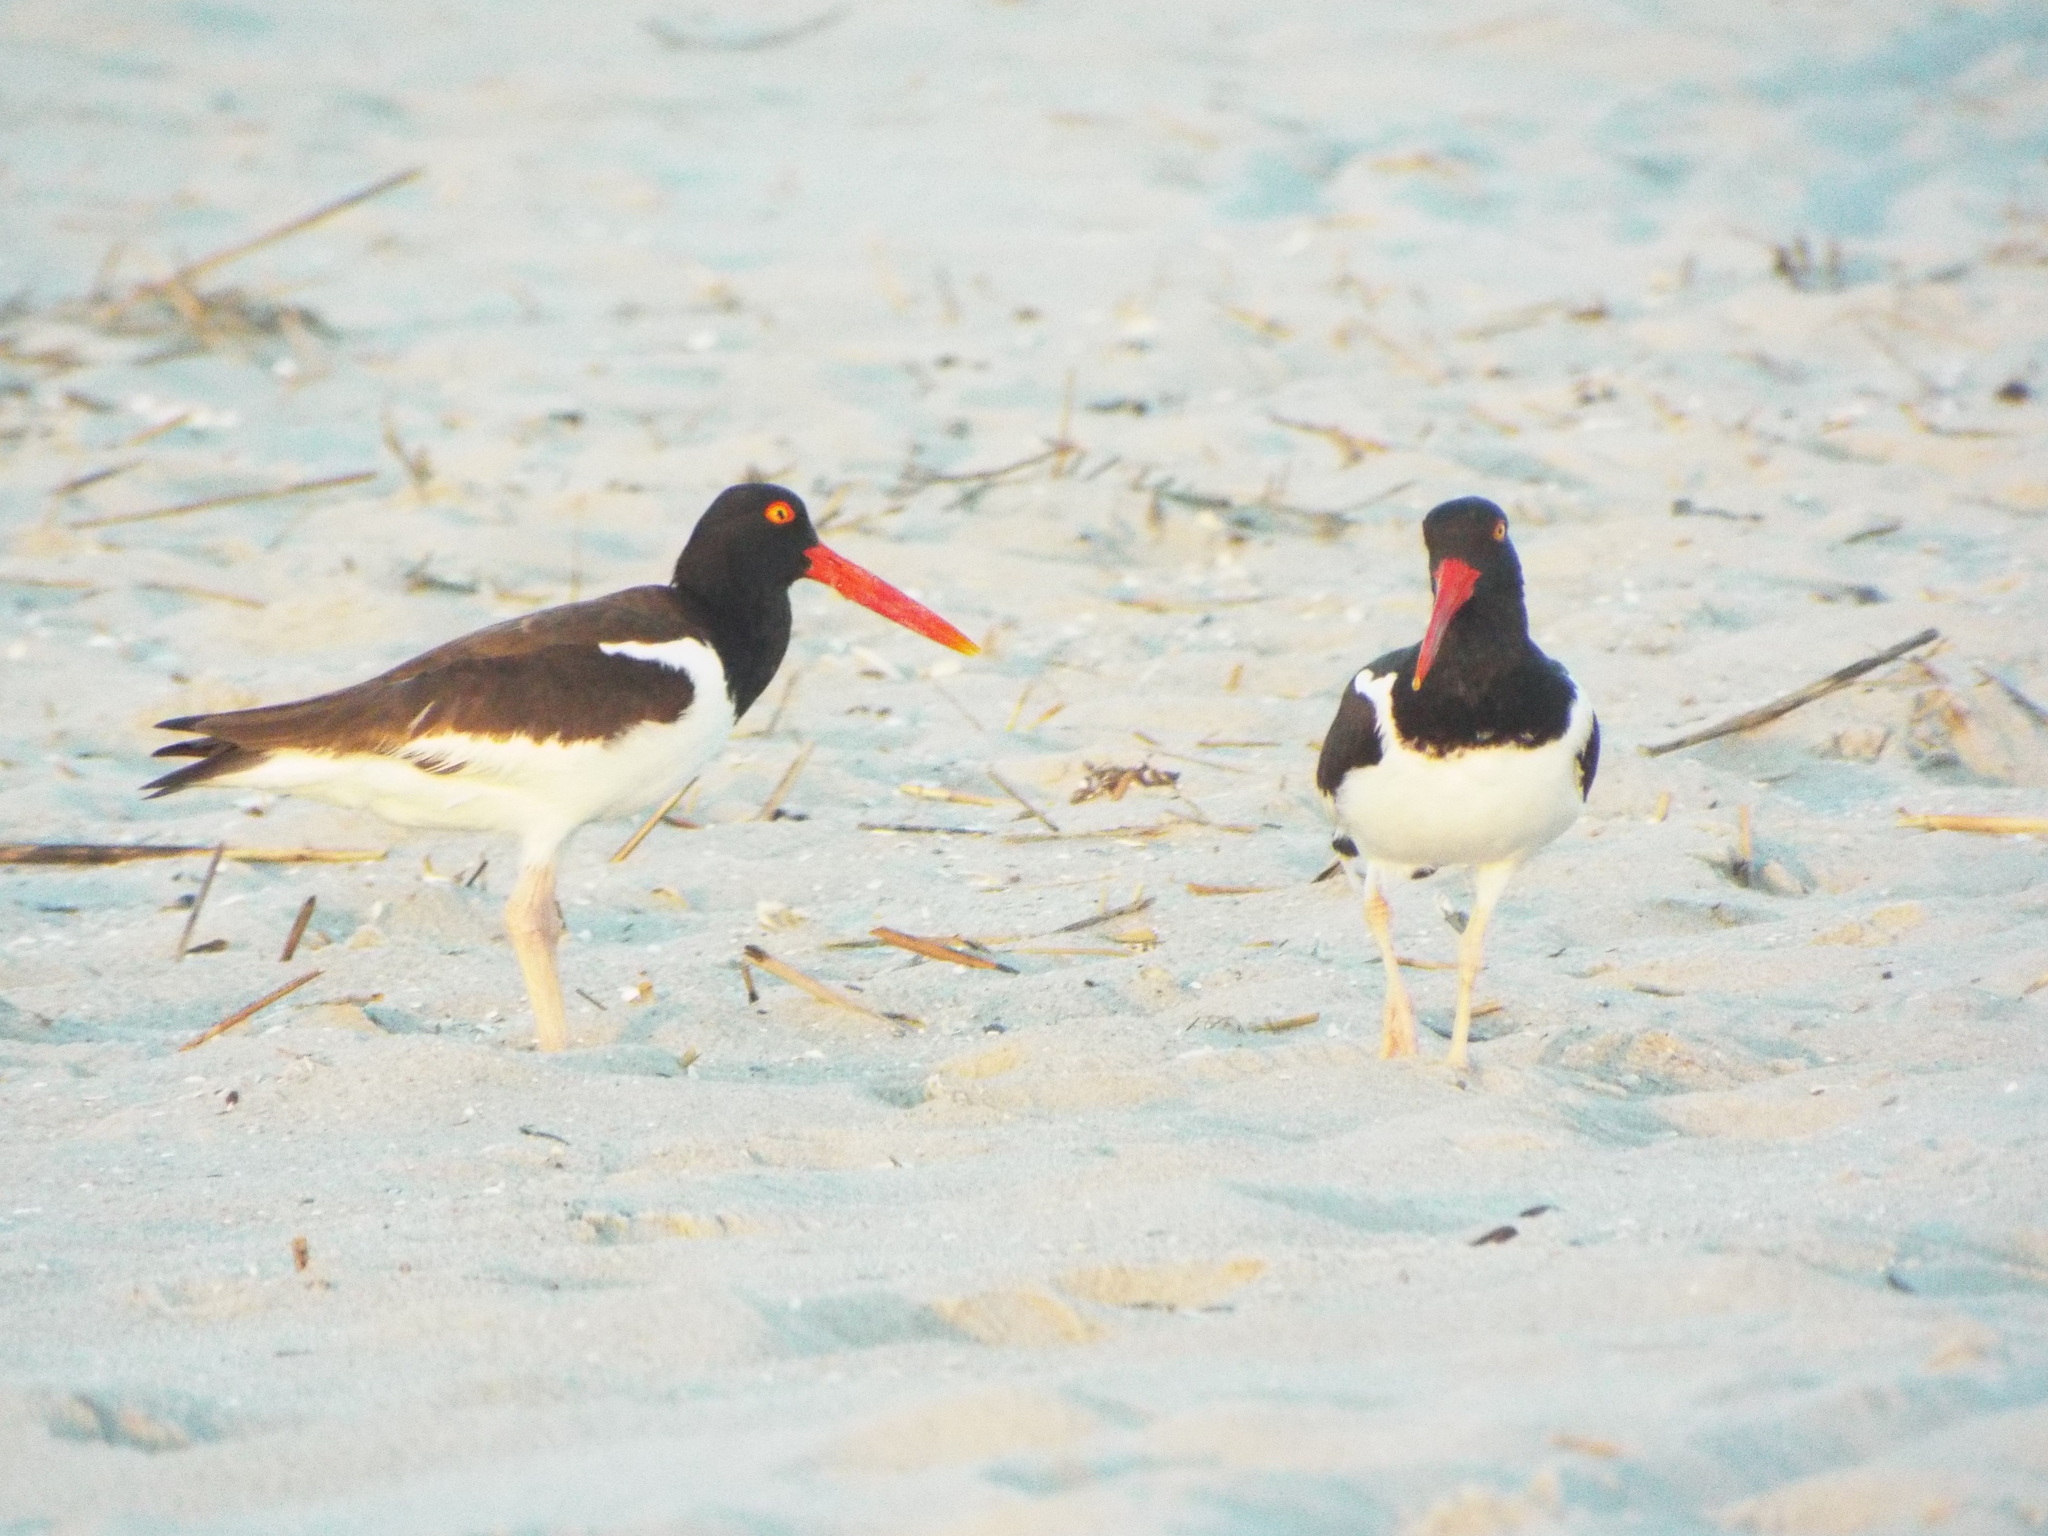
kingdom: Animalia
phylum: Chordata
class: Aves
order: Charadriiformes
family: Haematopodidae
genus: Haematopus
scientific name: Haematopus palliatus
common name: American oystercatcher
